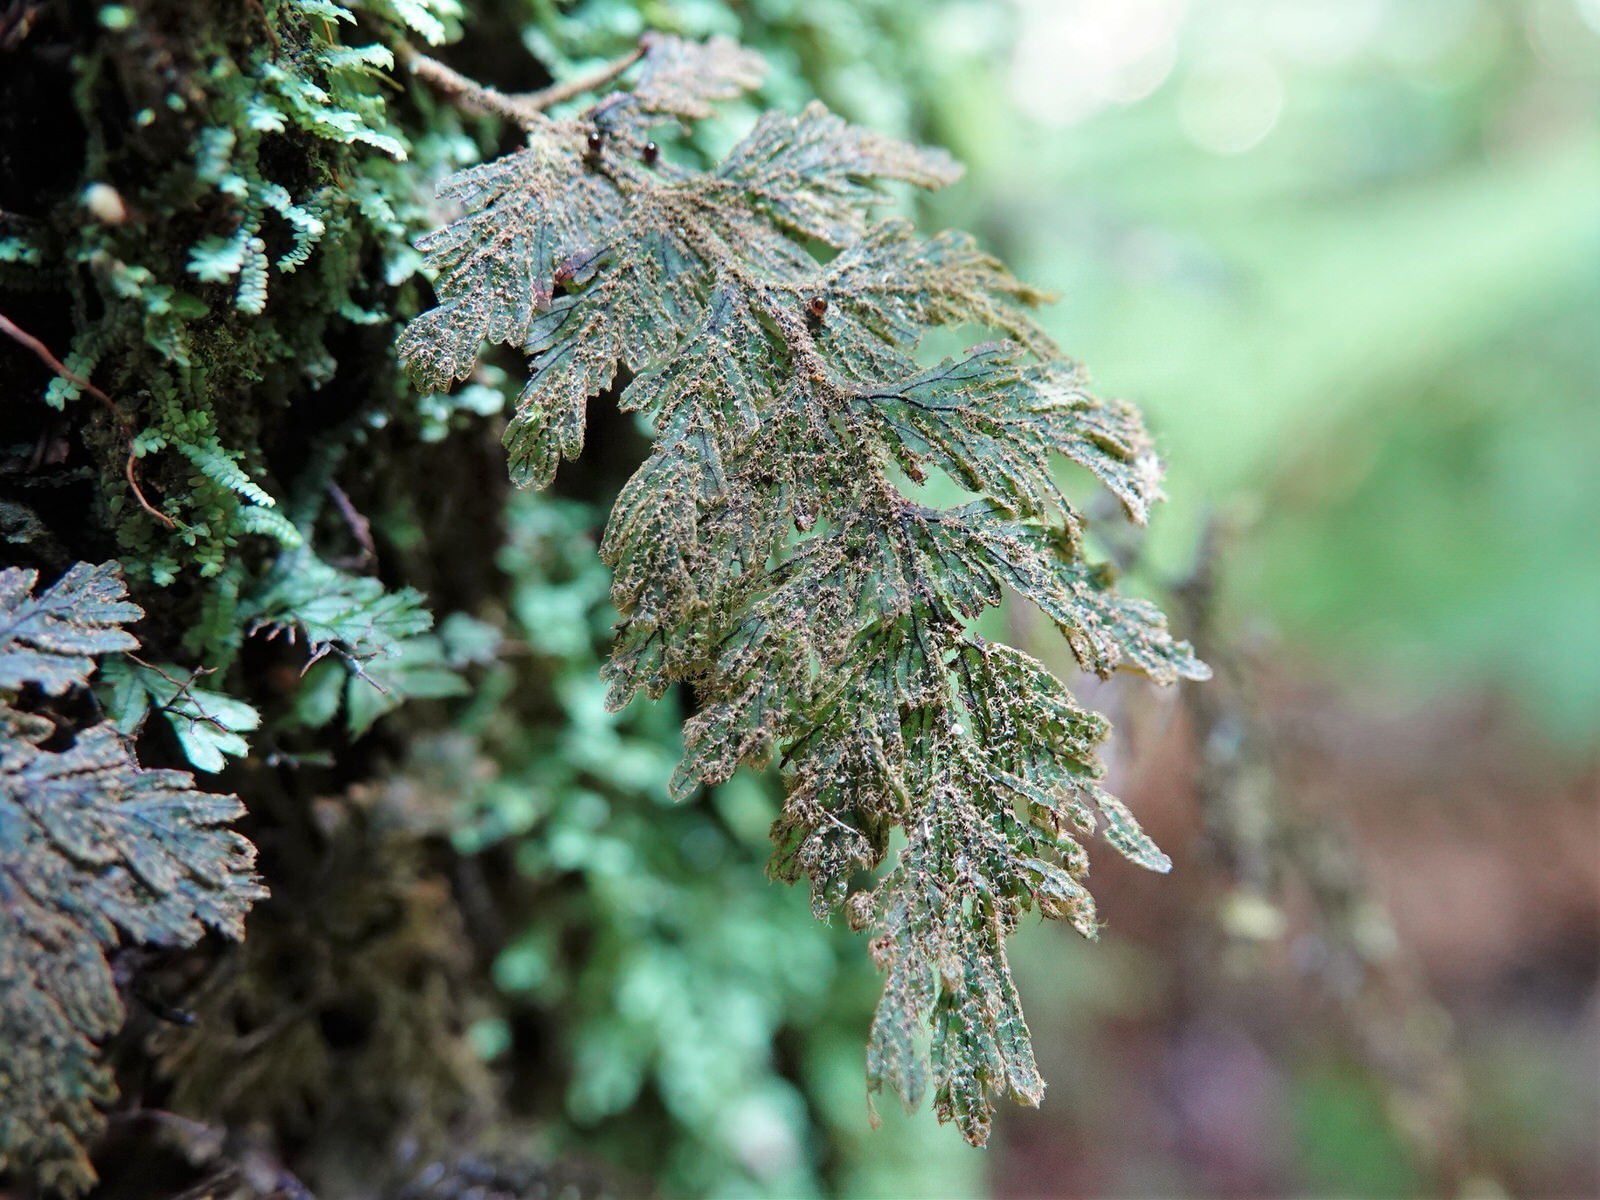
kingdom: Plantae
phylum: Tracheophyta
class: Polypodiopsida
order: Hymenophyllales
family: Hymenophyllaceae
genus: Hymenophyllum
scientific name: Hymenophyllum frankliniae
